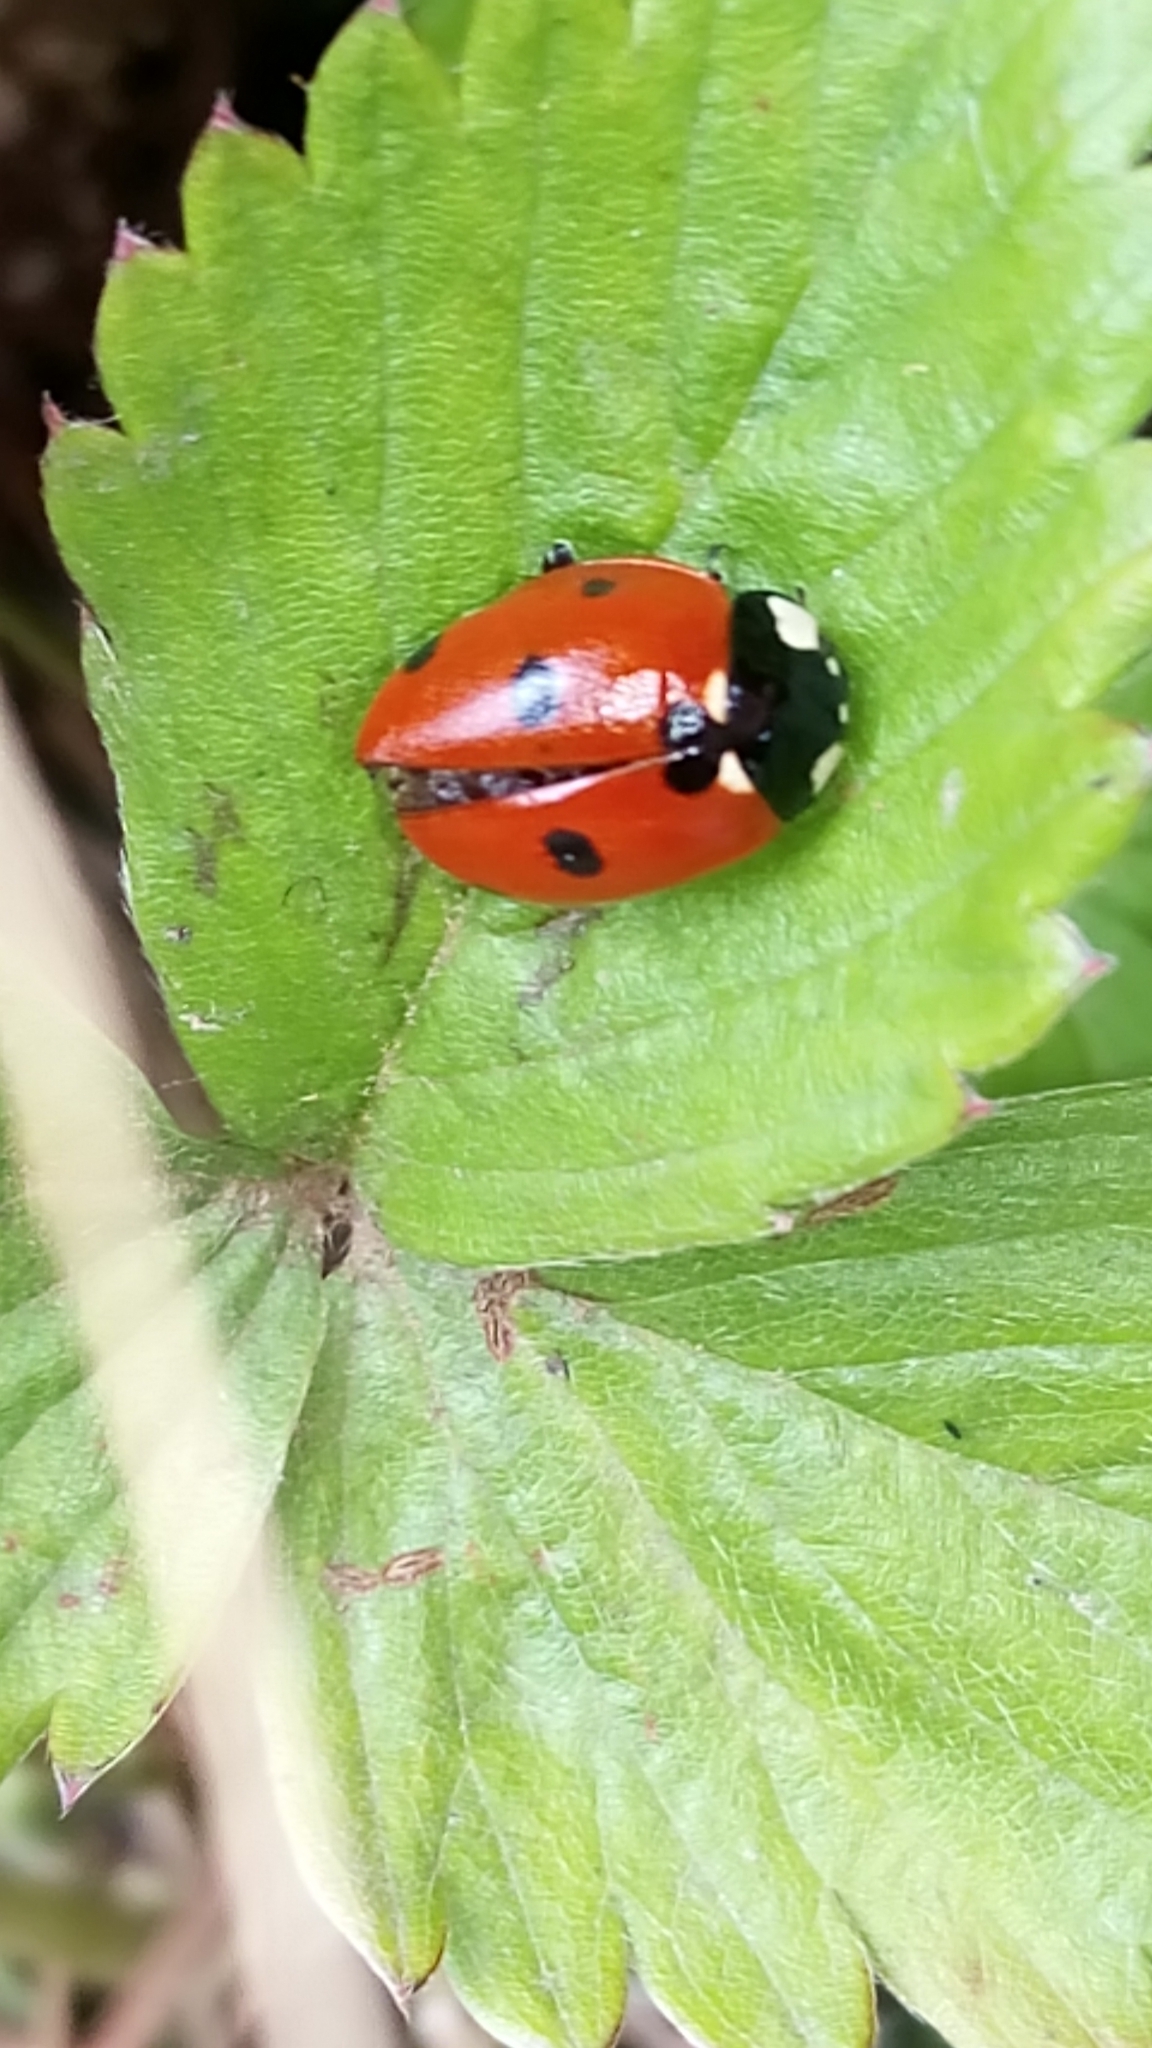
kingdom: Animalia
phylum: Arthropoda
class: Insecta
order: Coleoptera
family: Coccinellidae
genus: Coccinella
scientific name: Coccinella septempunctata
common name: Sevenspotted lady beetle
